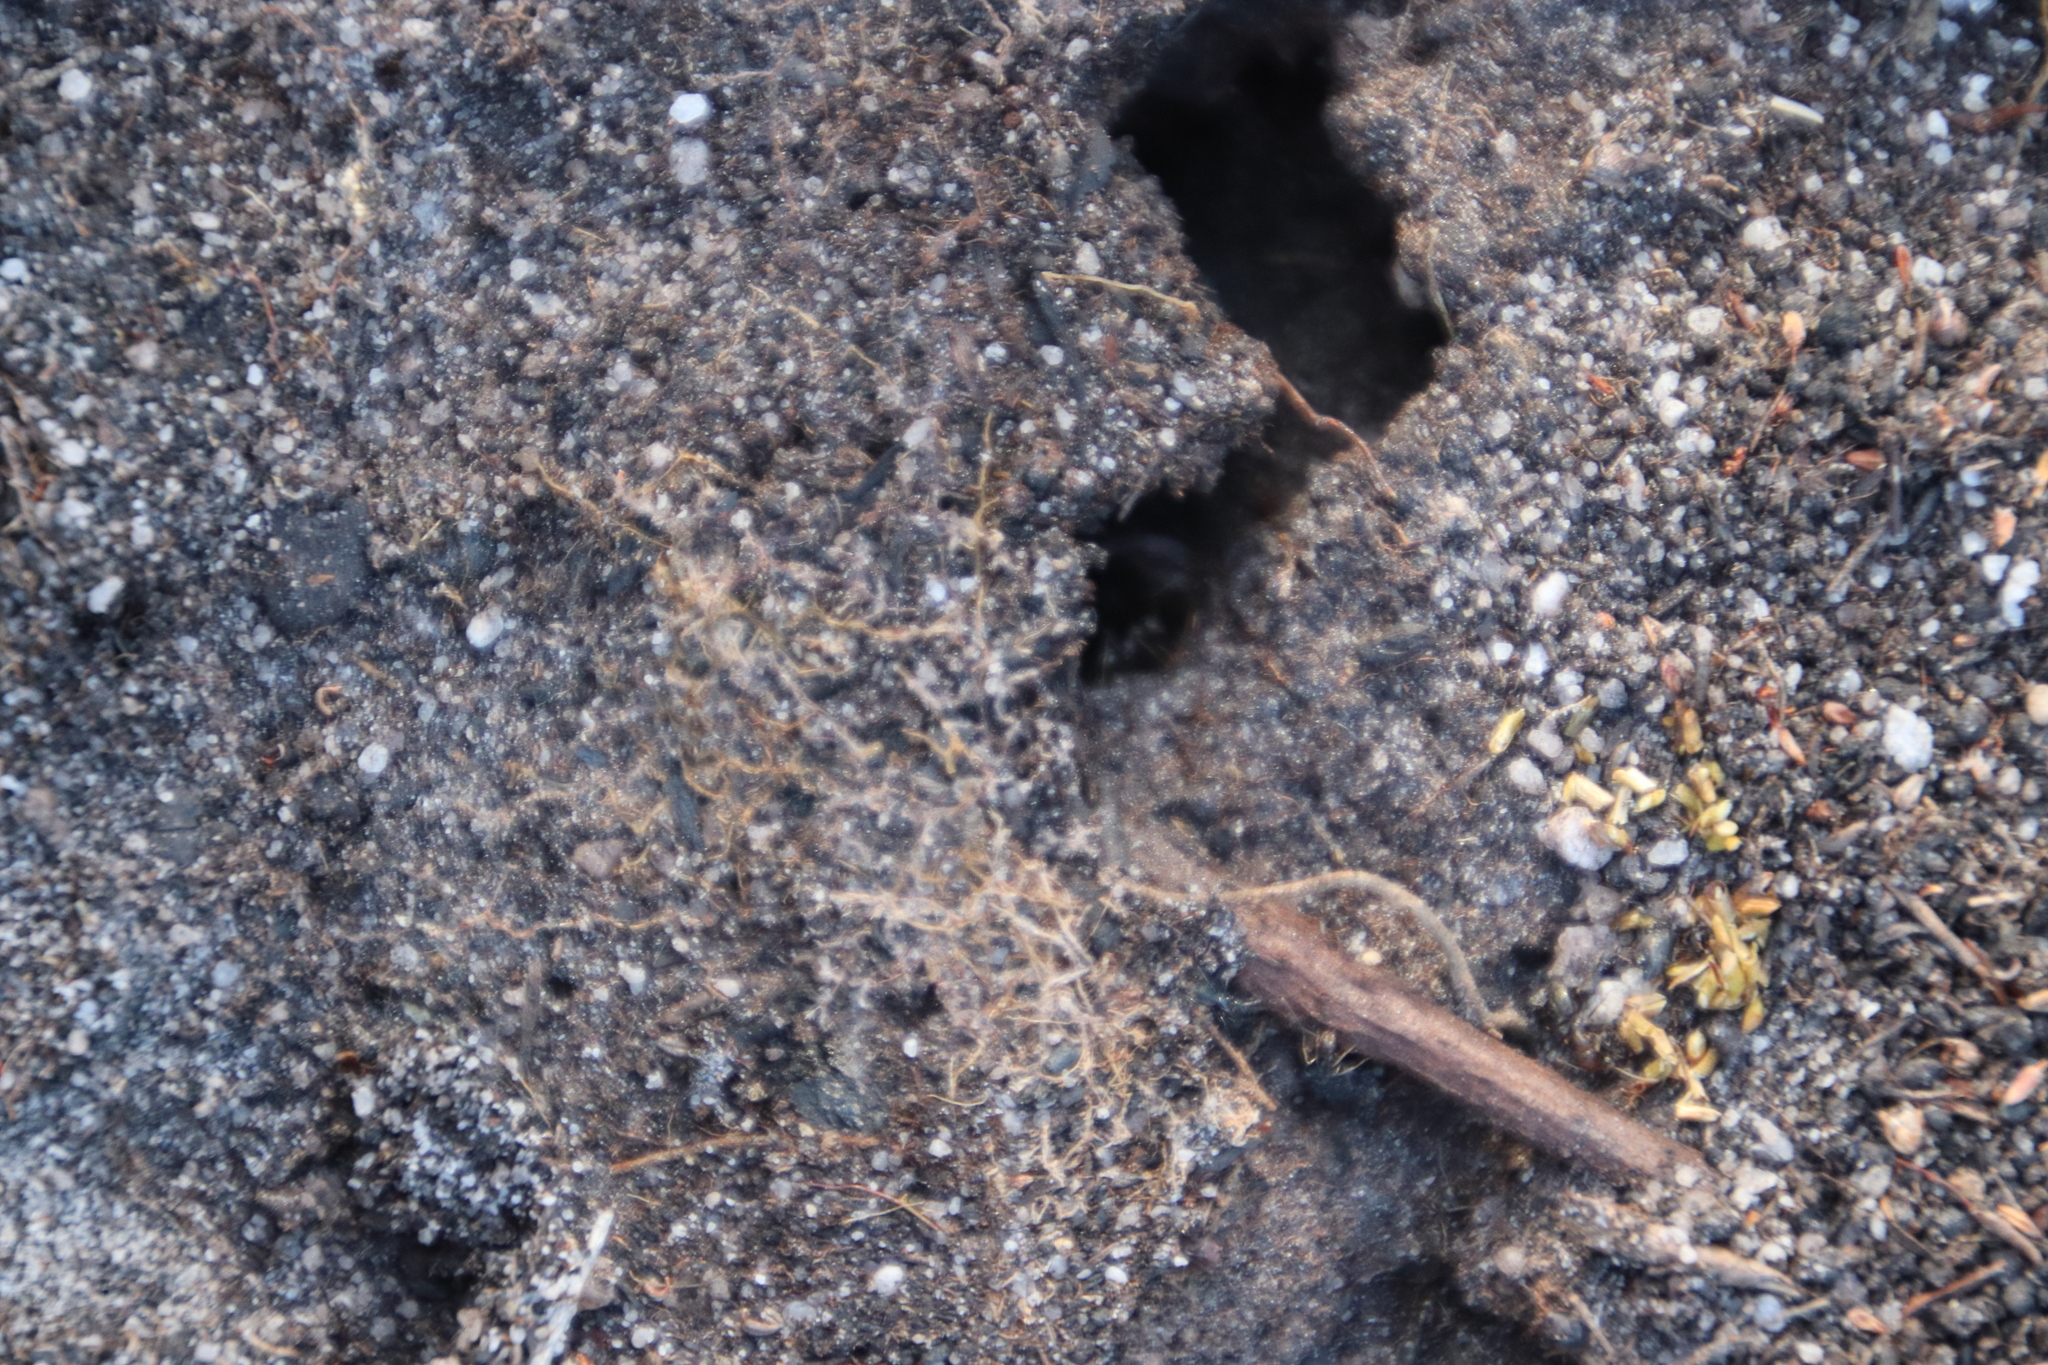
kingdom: Animalia
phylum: Arthropoda
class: Insecta
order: Hymenoptera
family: Formicidae
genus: Anoplolepis
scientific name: Anoplolepis steingroeveri
